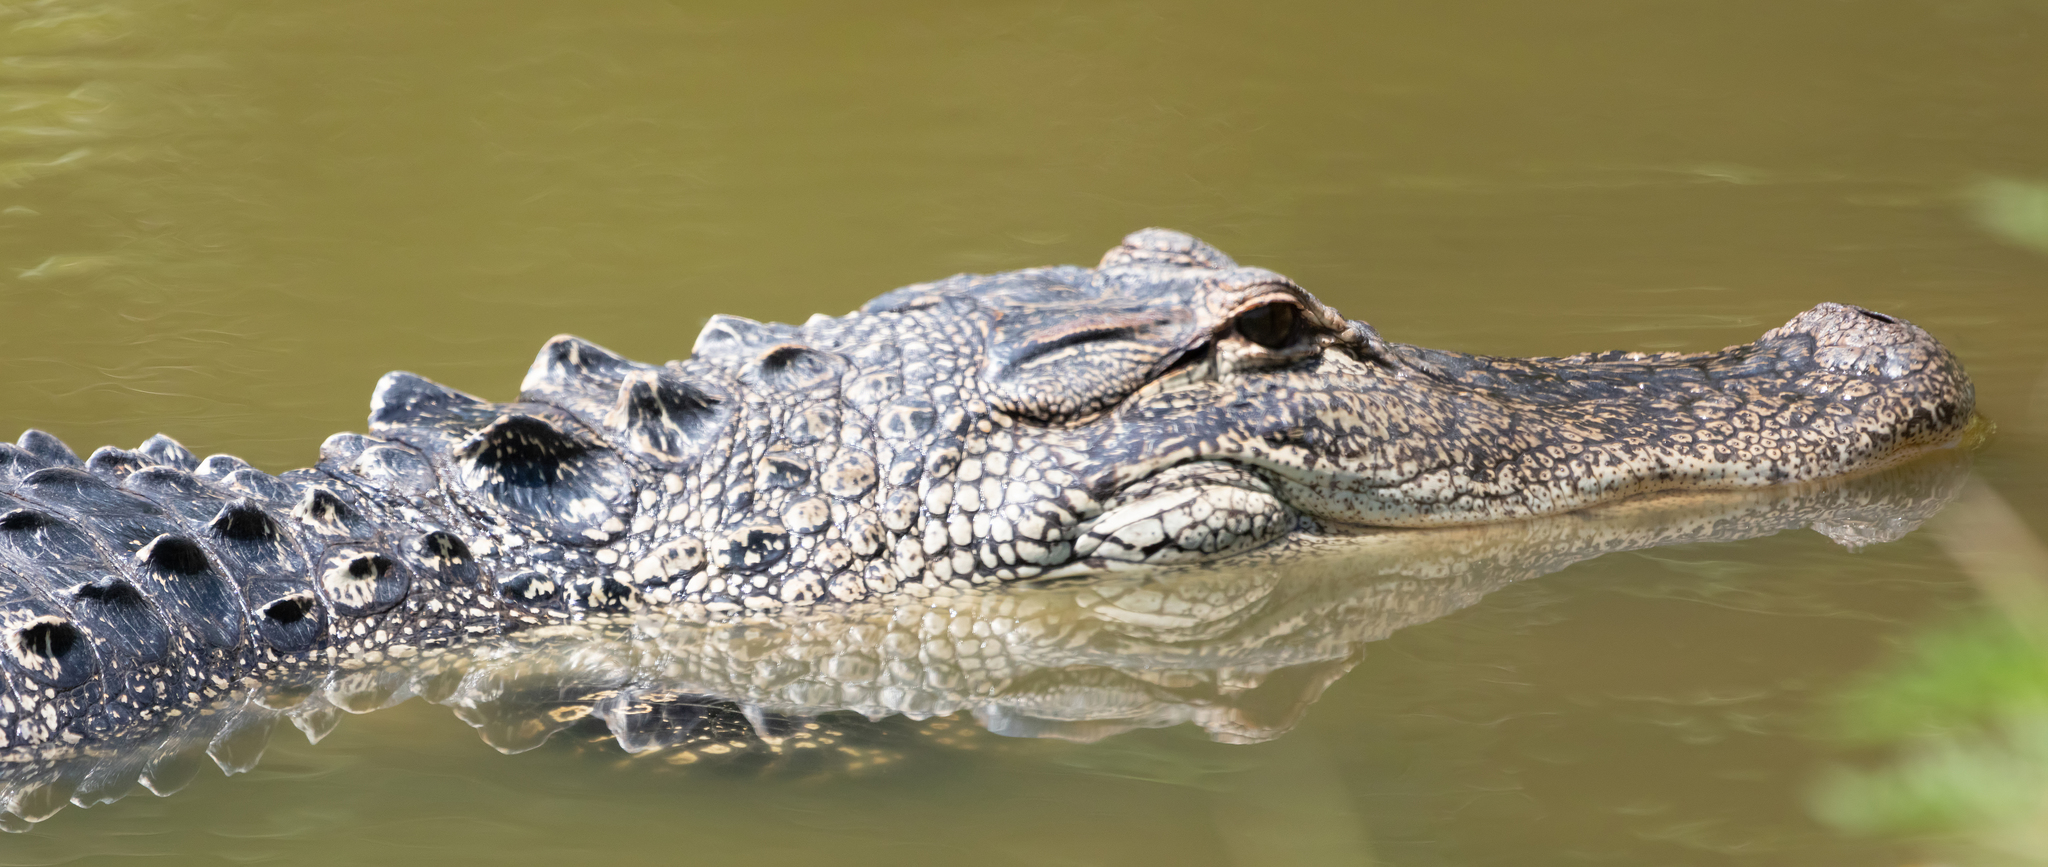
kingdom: Animalia
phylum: Chordata
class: Crocodylia
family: Alligatoridae
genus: Alligator
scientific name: Alligator mississippiensis
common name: American alligator
